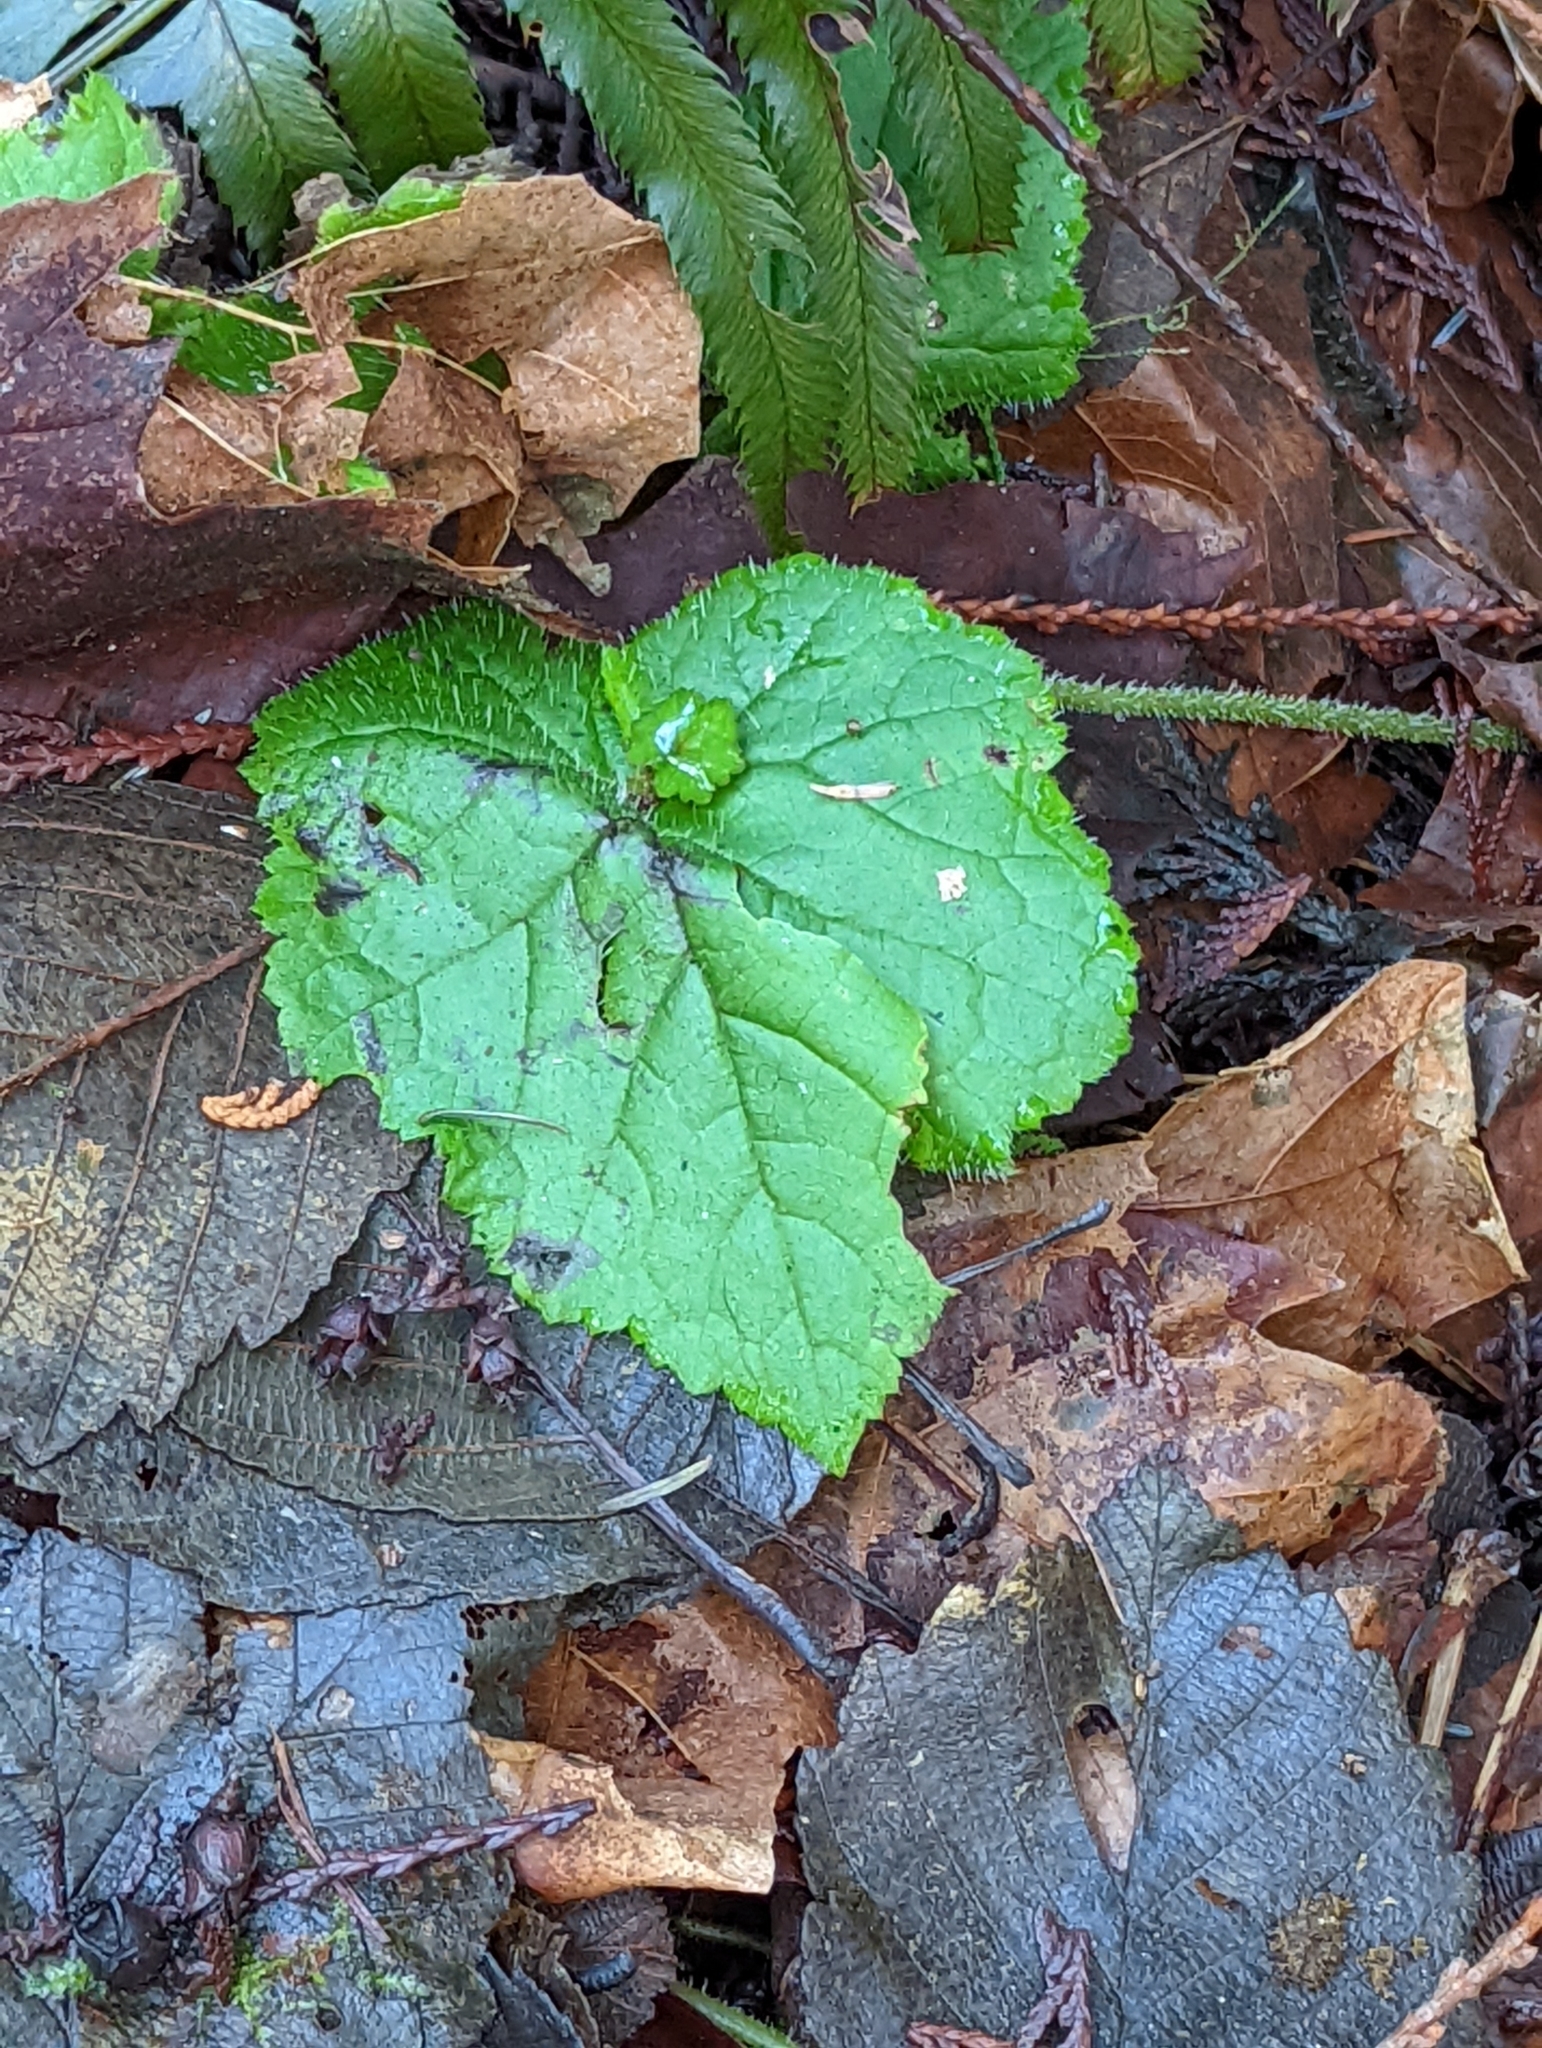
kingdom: Plantae
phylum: Tracheophyta
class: Magnoliopsida
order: Saxifragales
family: Saxifragaceae
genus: Tolmiea
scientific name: Tolmiea menziesii
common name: Pick-a-back-plant
